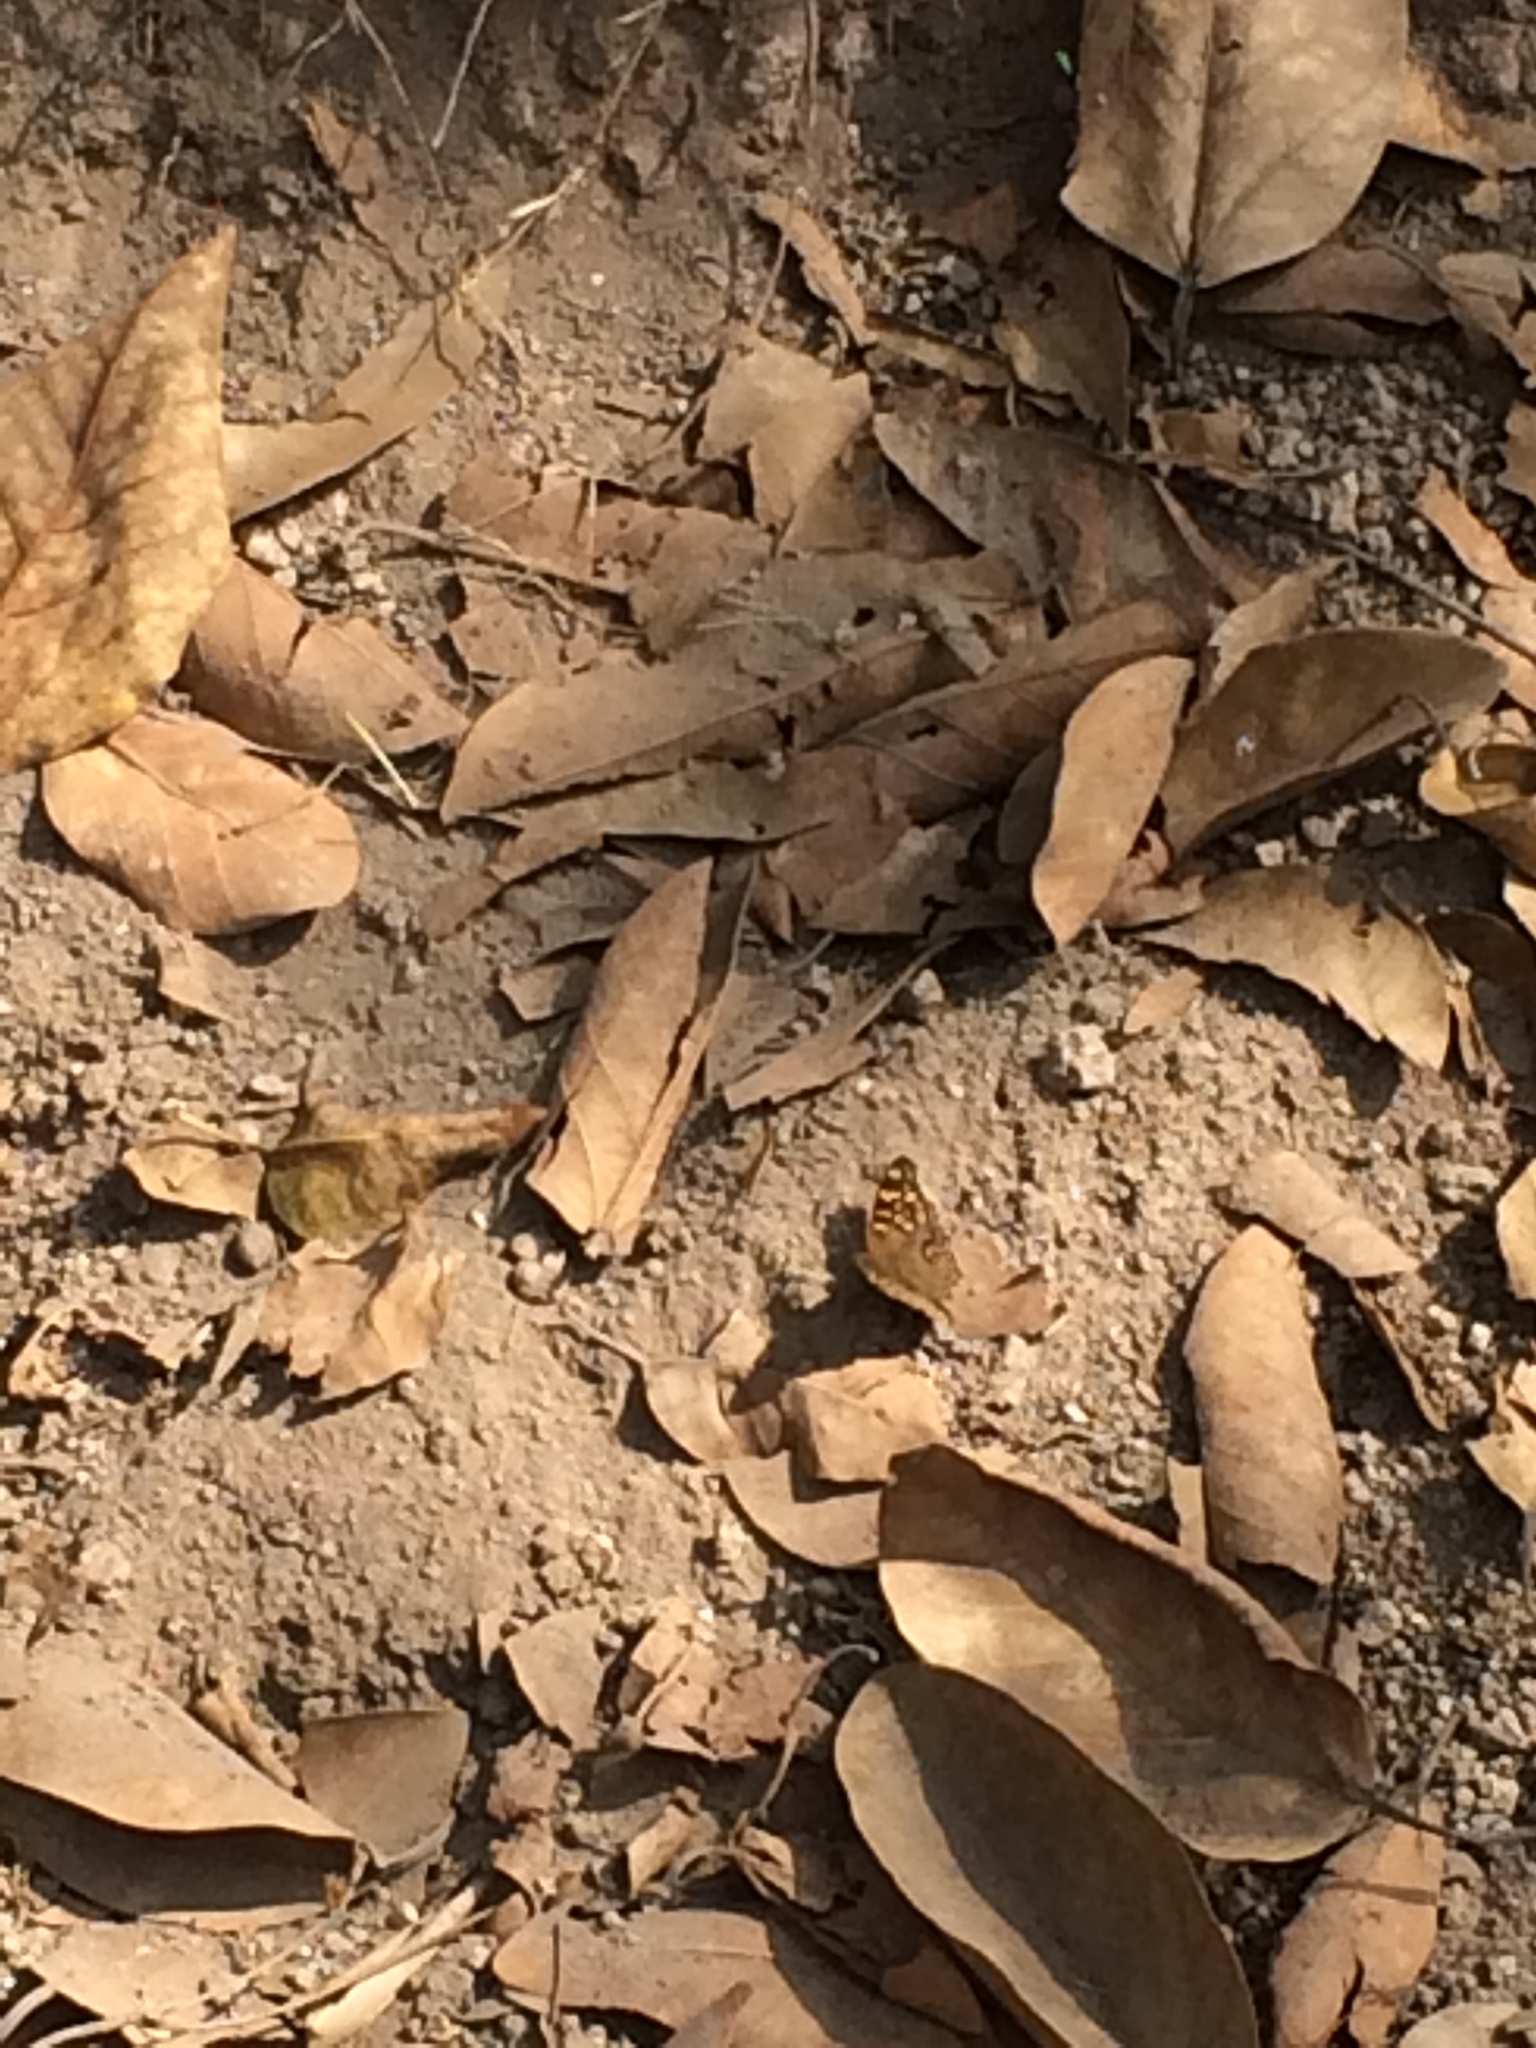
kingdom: Animalia
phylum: Arthropoda
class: Insecta
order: Lepidoptera
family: Nymphalidae
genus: Junonia
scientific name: Junonia lemonias
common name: Lemon pansy
